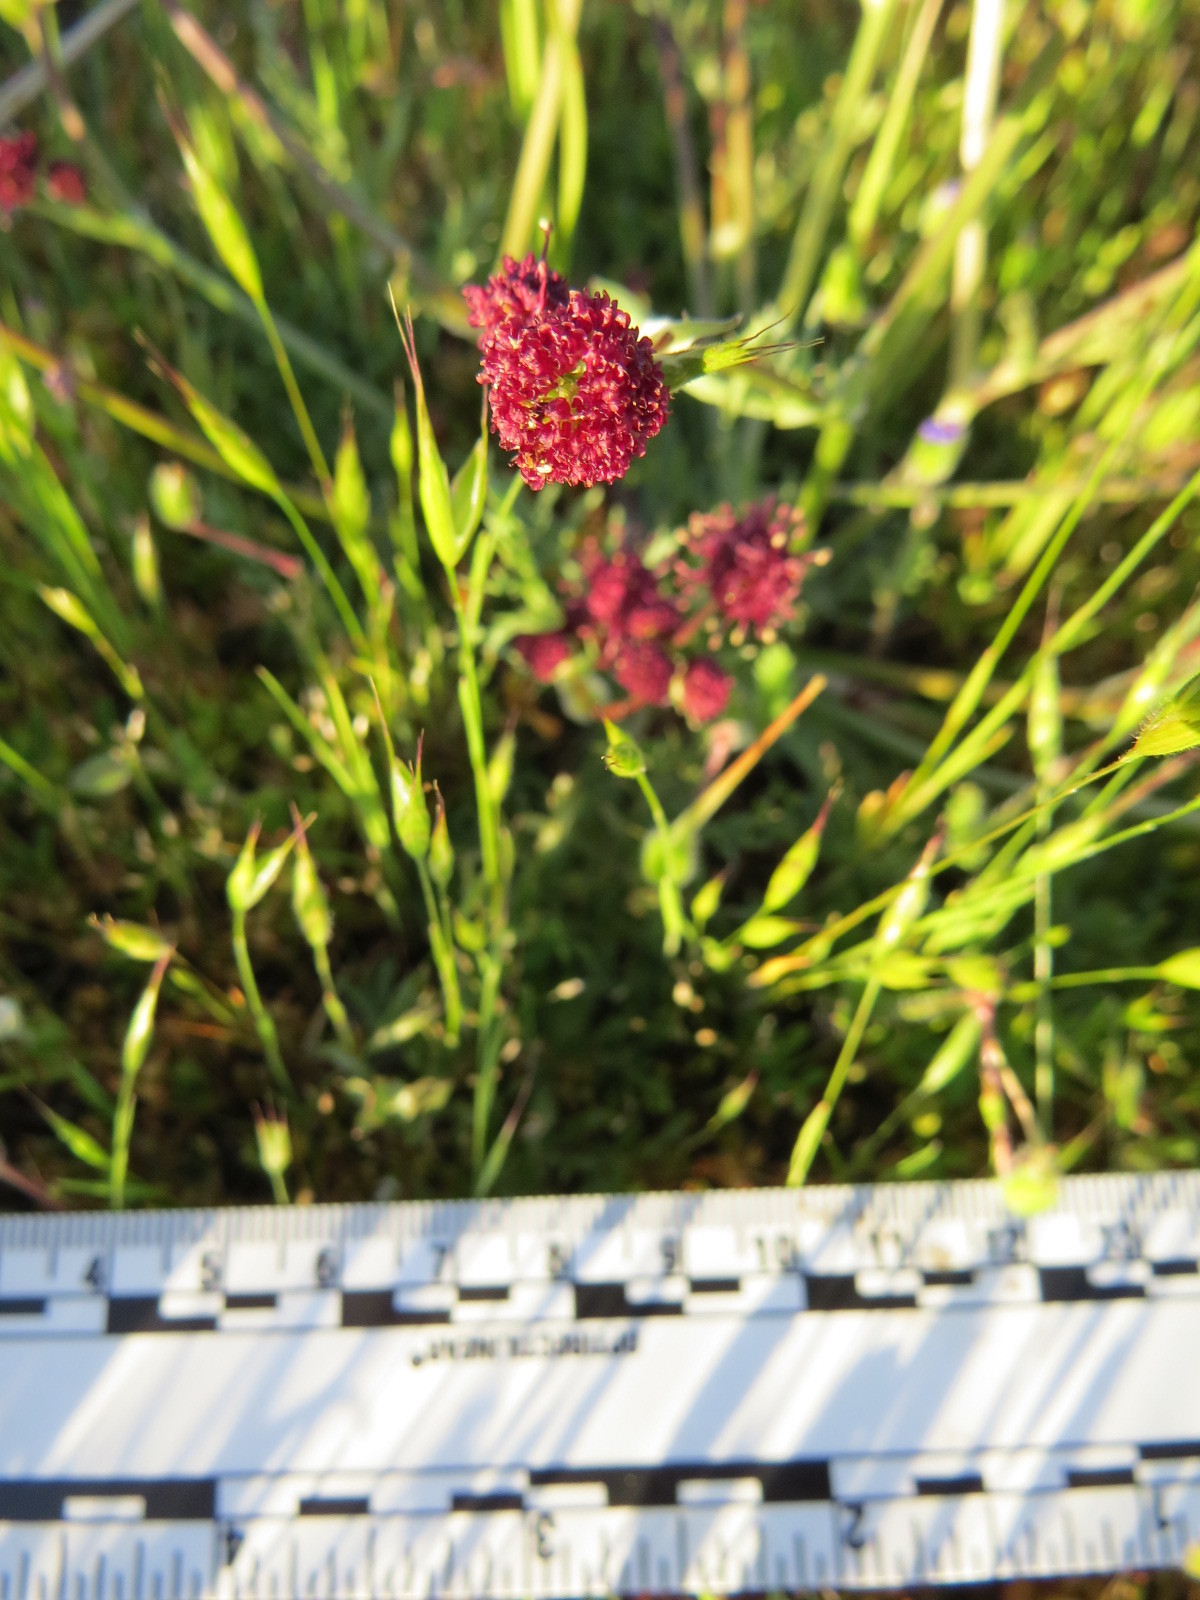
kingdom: Plantae
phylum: Tracheophyta
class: Magnoliopsida
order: Apiales
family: Apiaceae
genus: Sanicula
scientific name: Sanicula bipinnatifida
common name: Shoe-buttons
